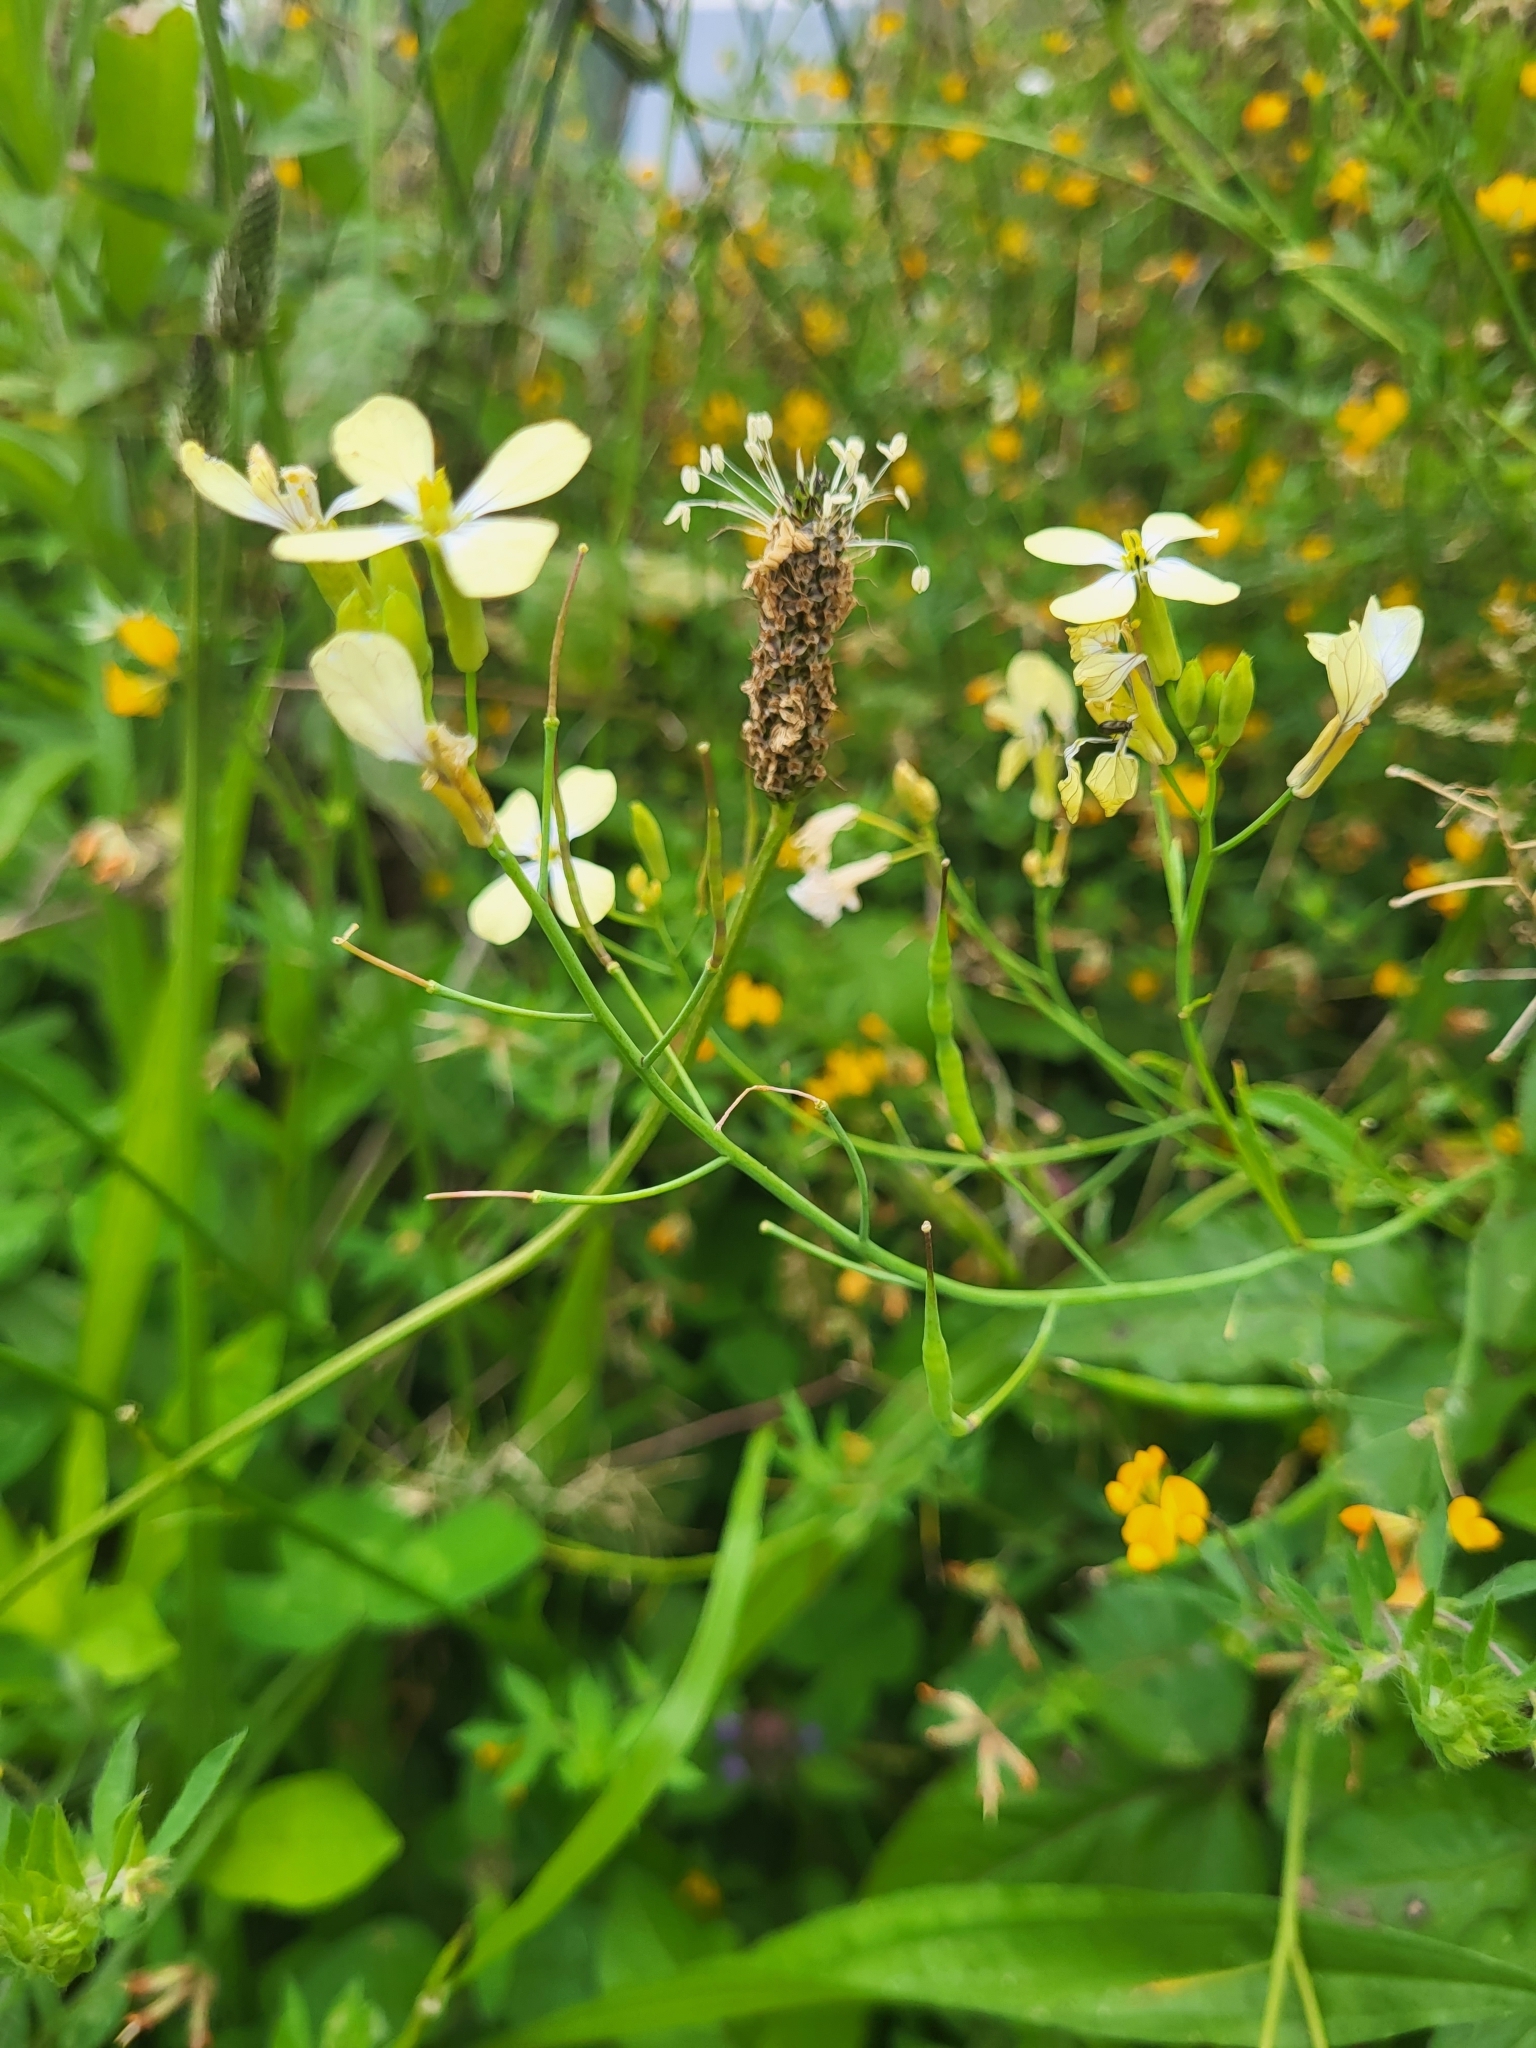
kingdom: Plantae
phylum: Tracheophyta
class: Magnoliopsida
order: Brassicales
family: Brassicaceae
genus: Raphanus
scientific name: Raphanus raphanistrum
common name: Wild radish
